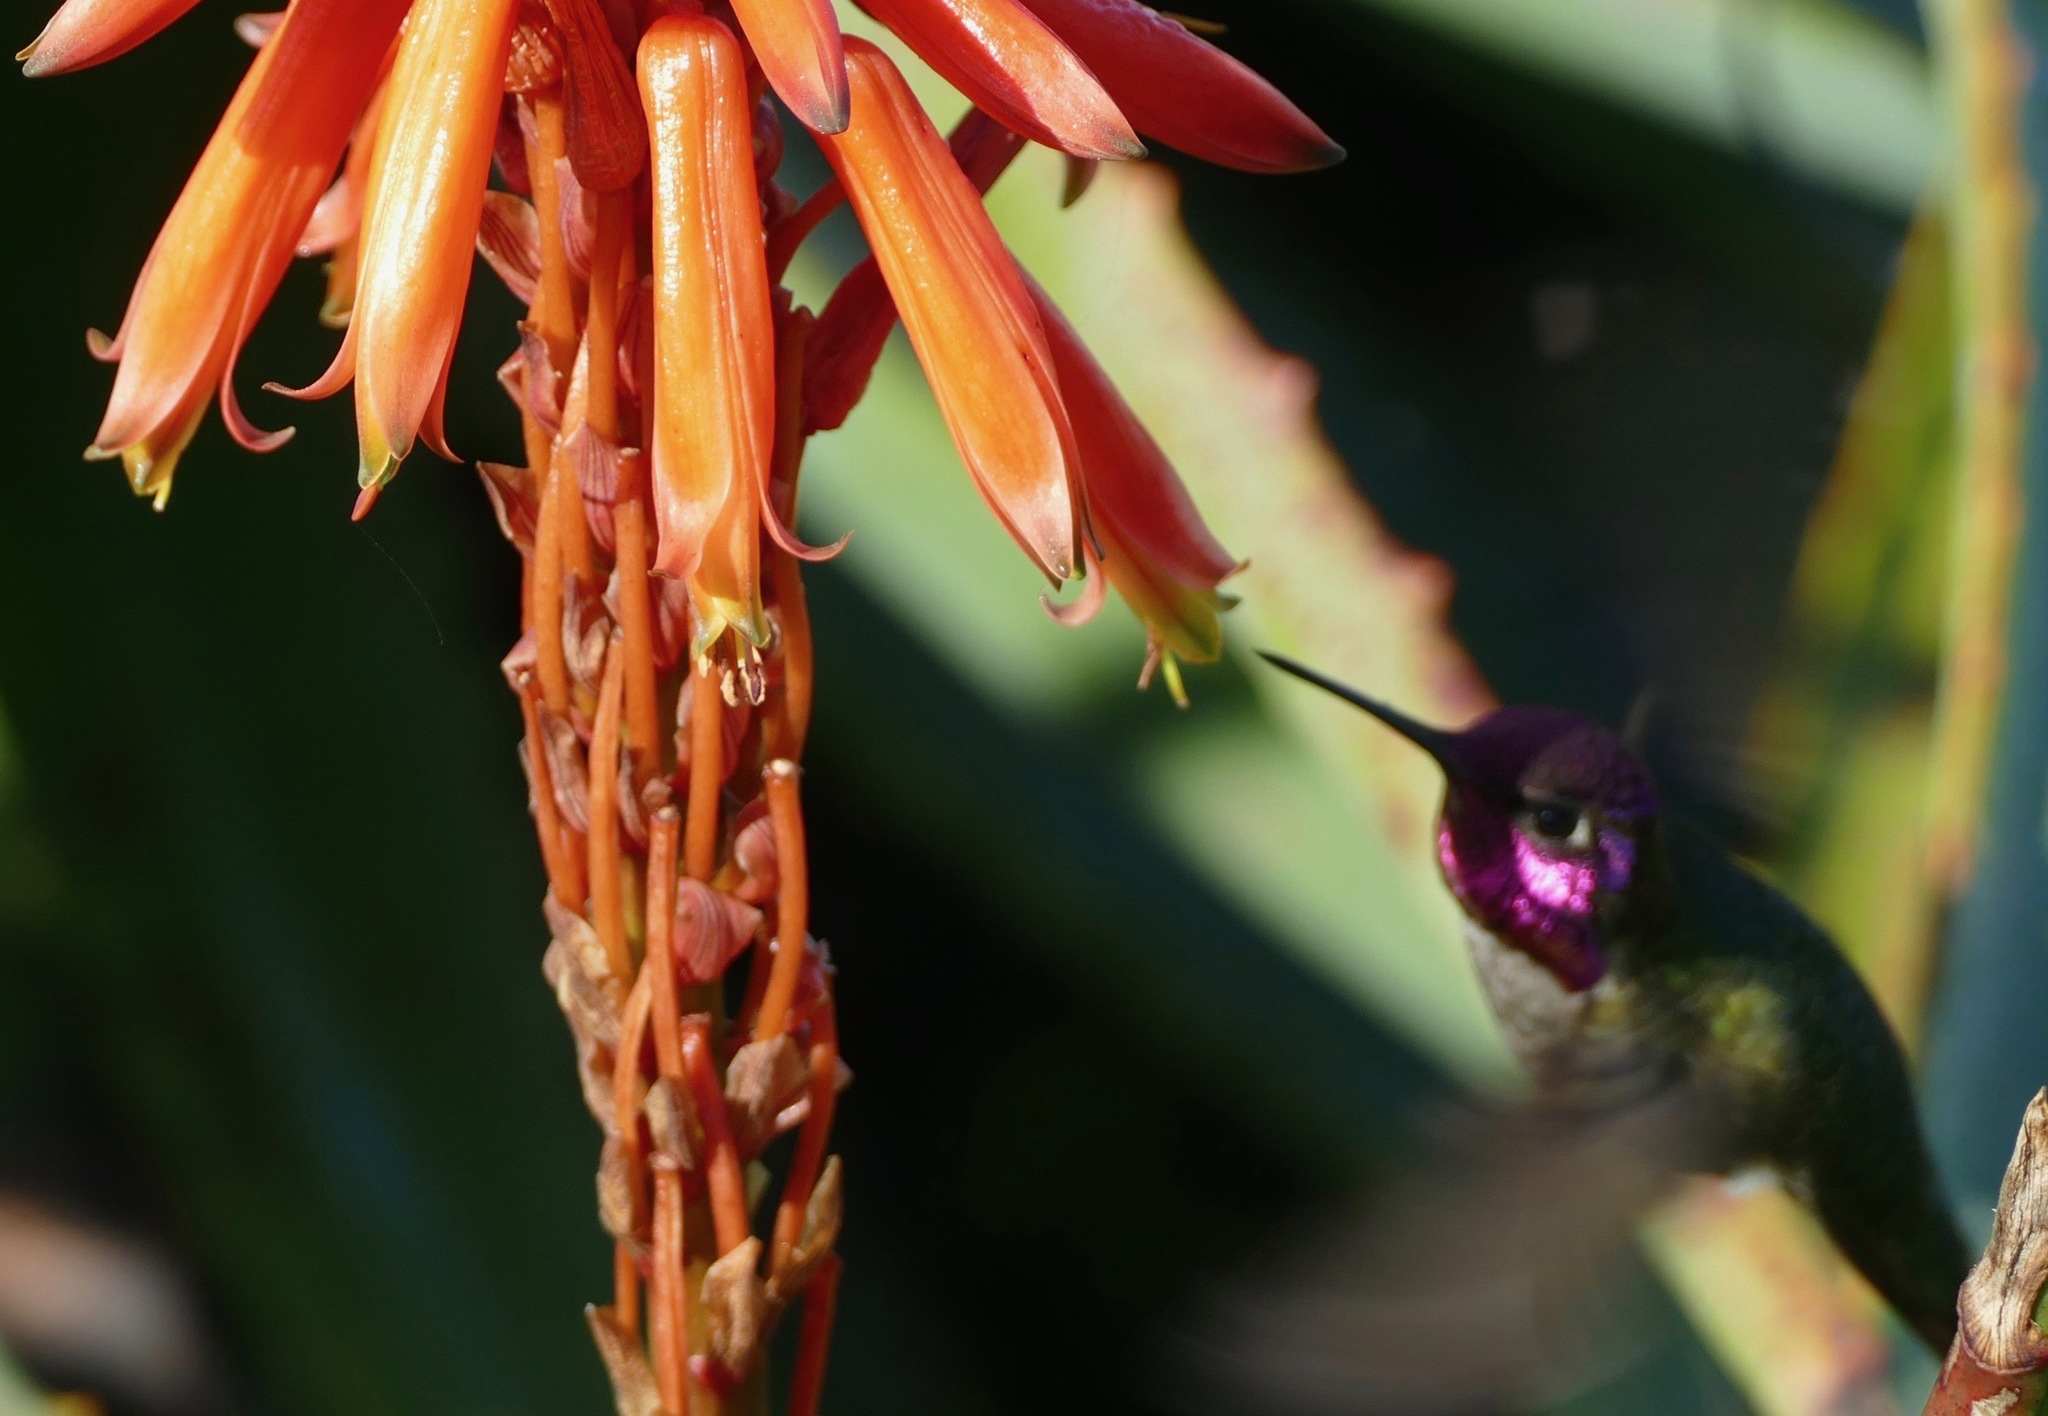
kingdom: Animalia
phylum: Chordata
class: Aves
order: Apodiformes
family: Trochilidae
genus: Calypte
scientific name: Calypte anna
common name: Anna's hummingbird
